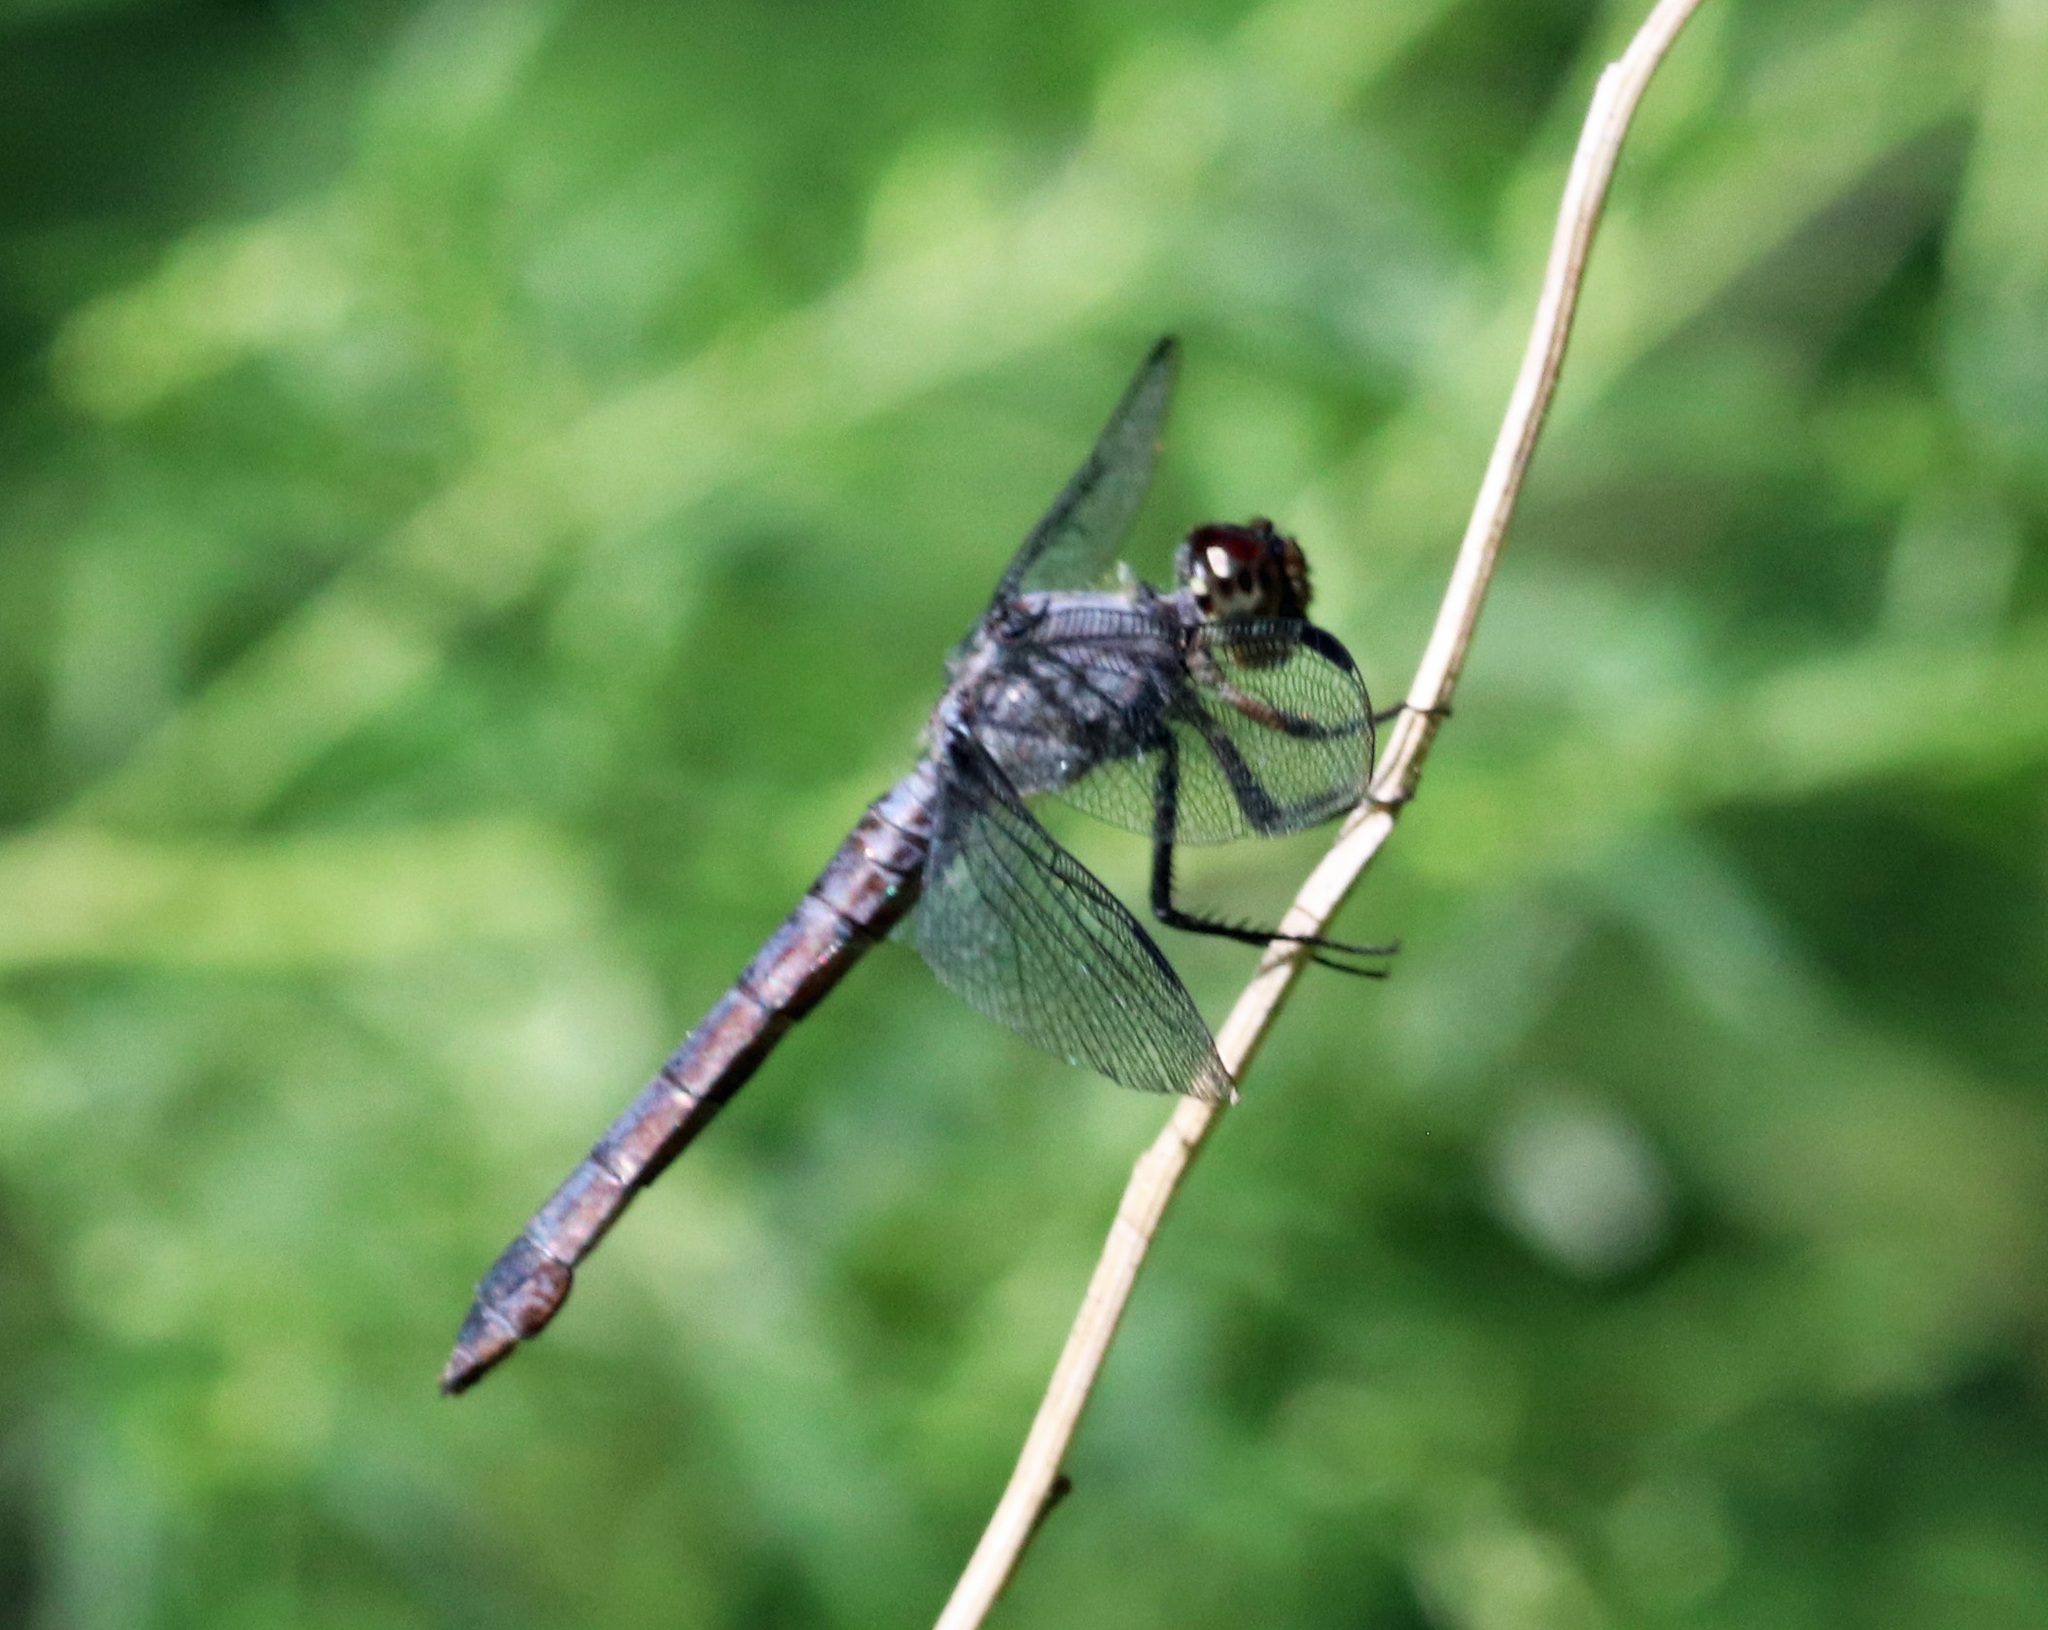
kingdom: Animalia
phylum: Arthropoda
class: Insecta
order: Odonata
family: Libellulidae
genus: Libellula
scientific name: Libellula incesta
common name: Slaty skimmer
